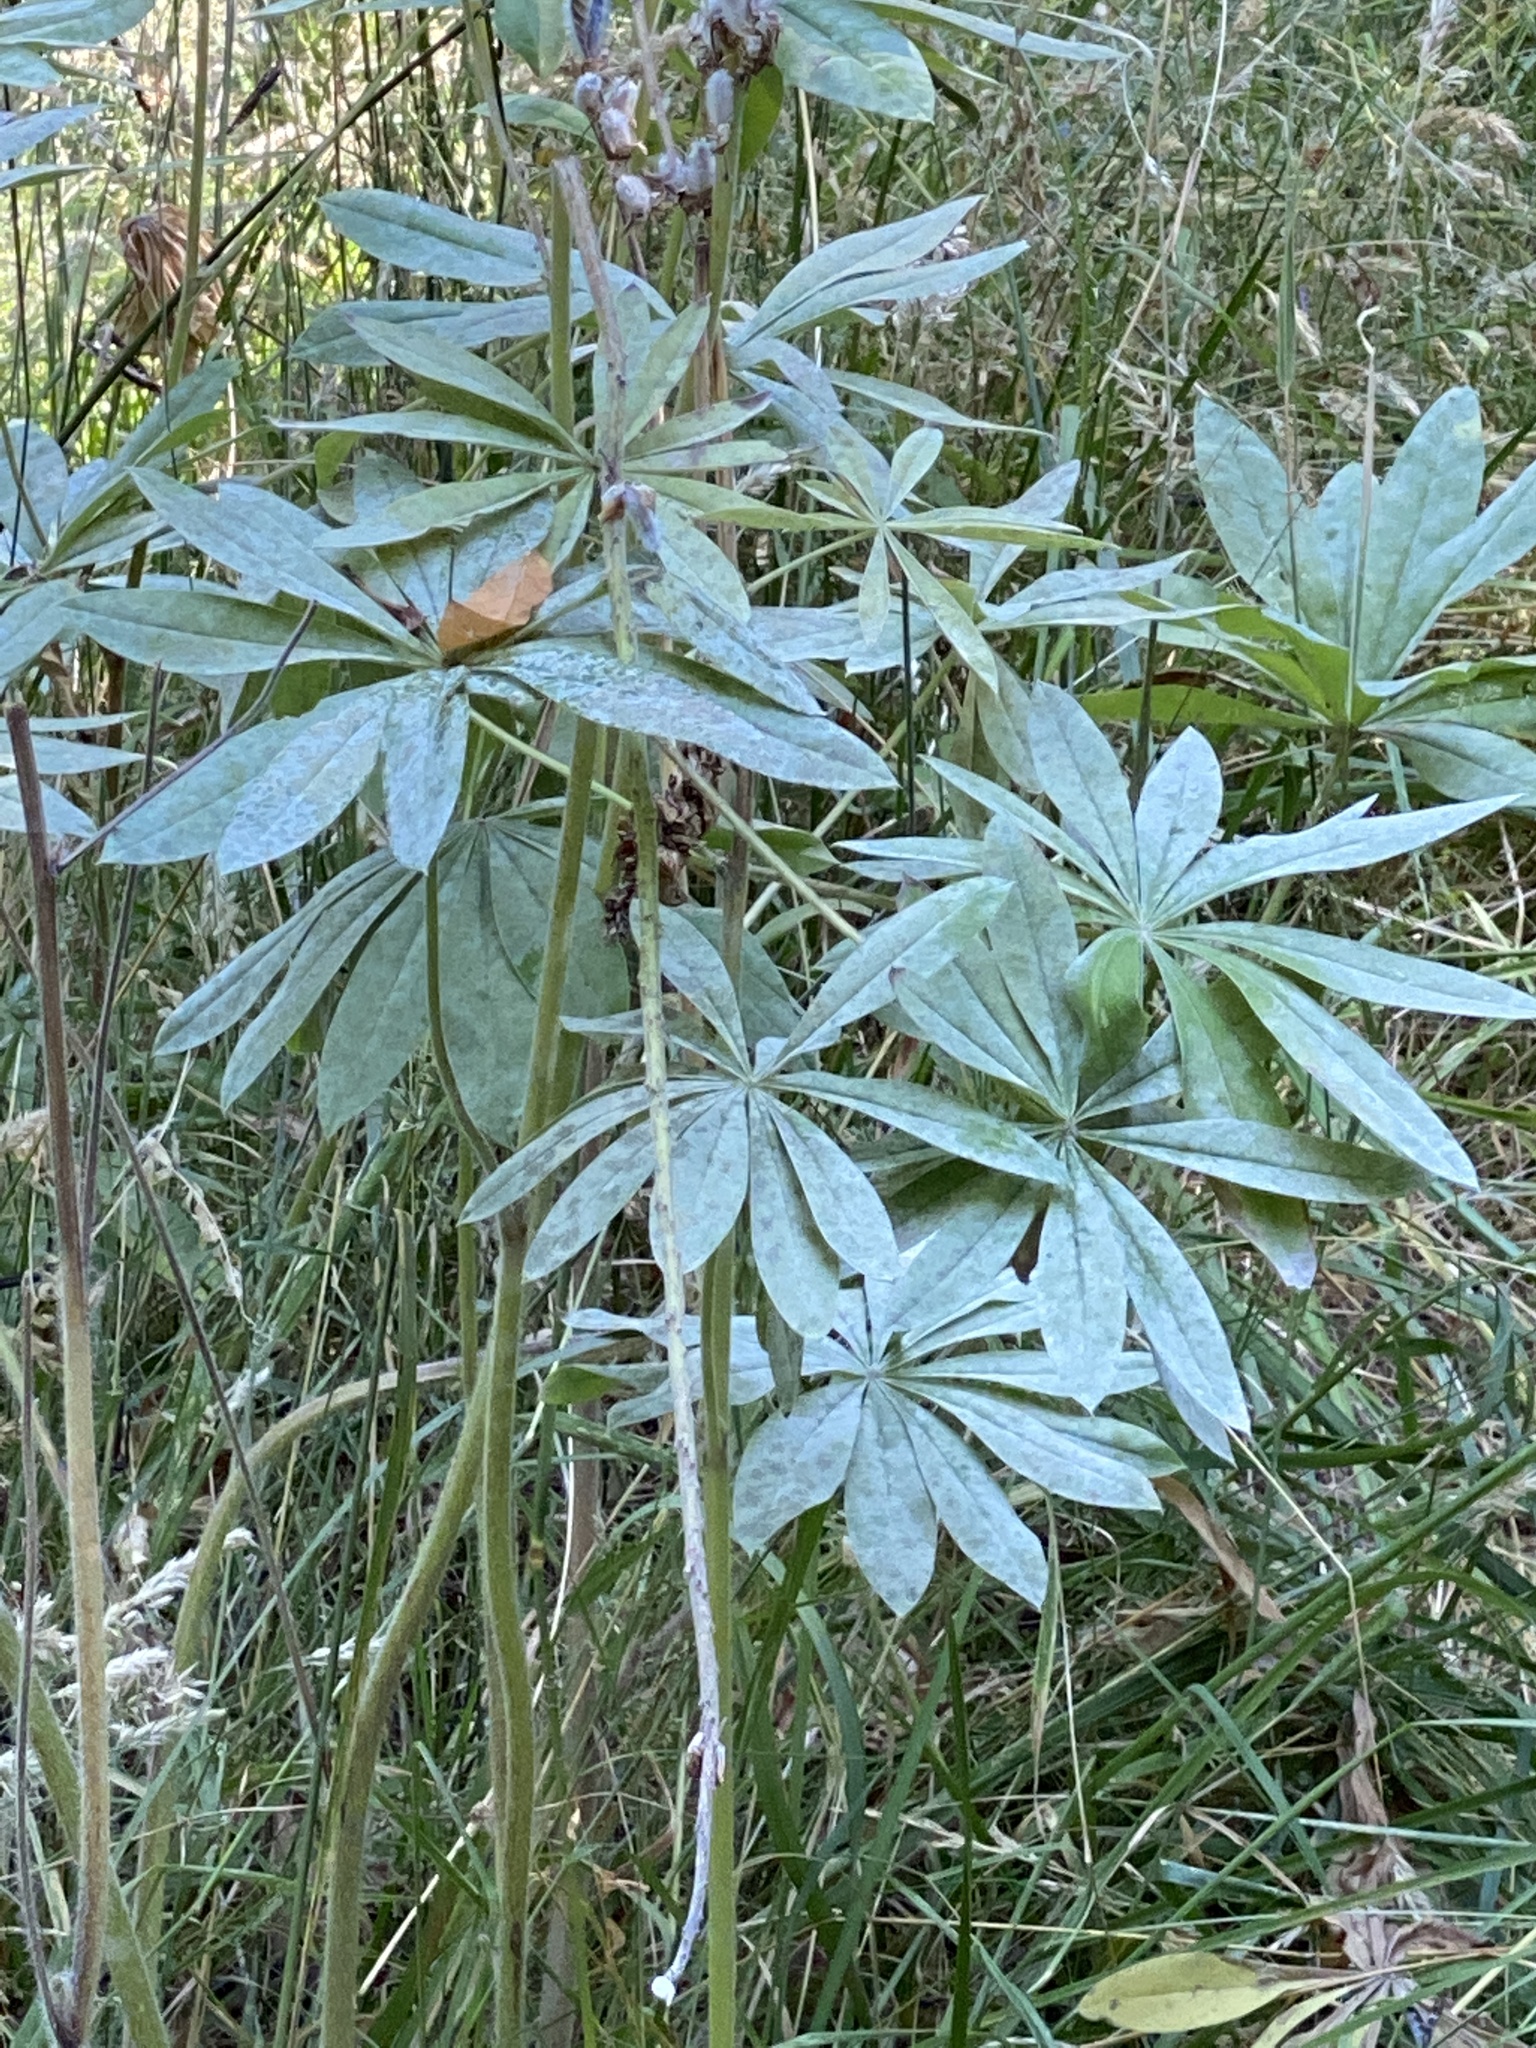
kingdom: Plantae
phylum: Tracheophyta
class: Magnoliopsida
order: Fabales
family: Fabaceae
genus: Lupinus
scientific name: Lupinus polyphyllus
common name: Garden lupin
